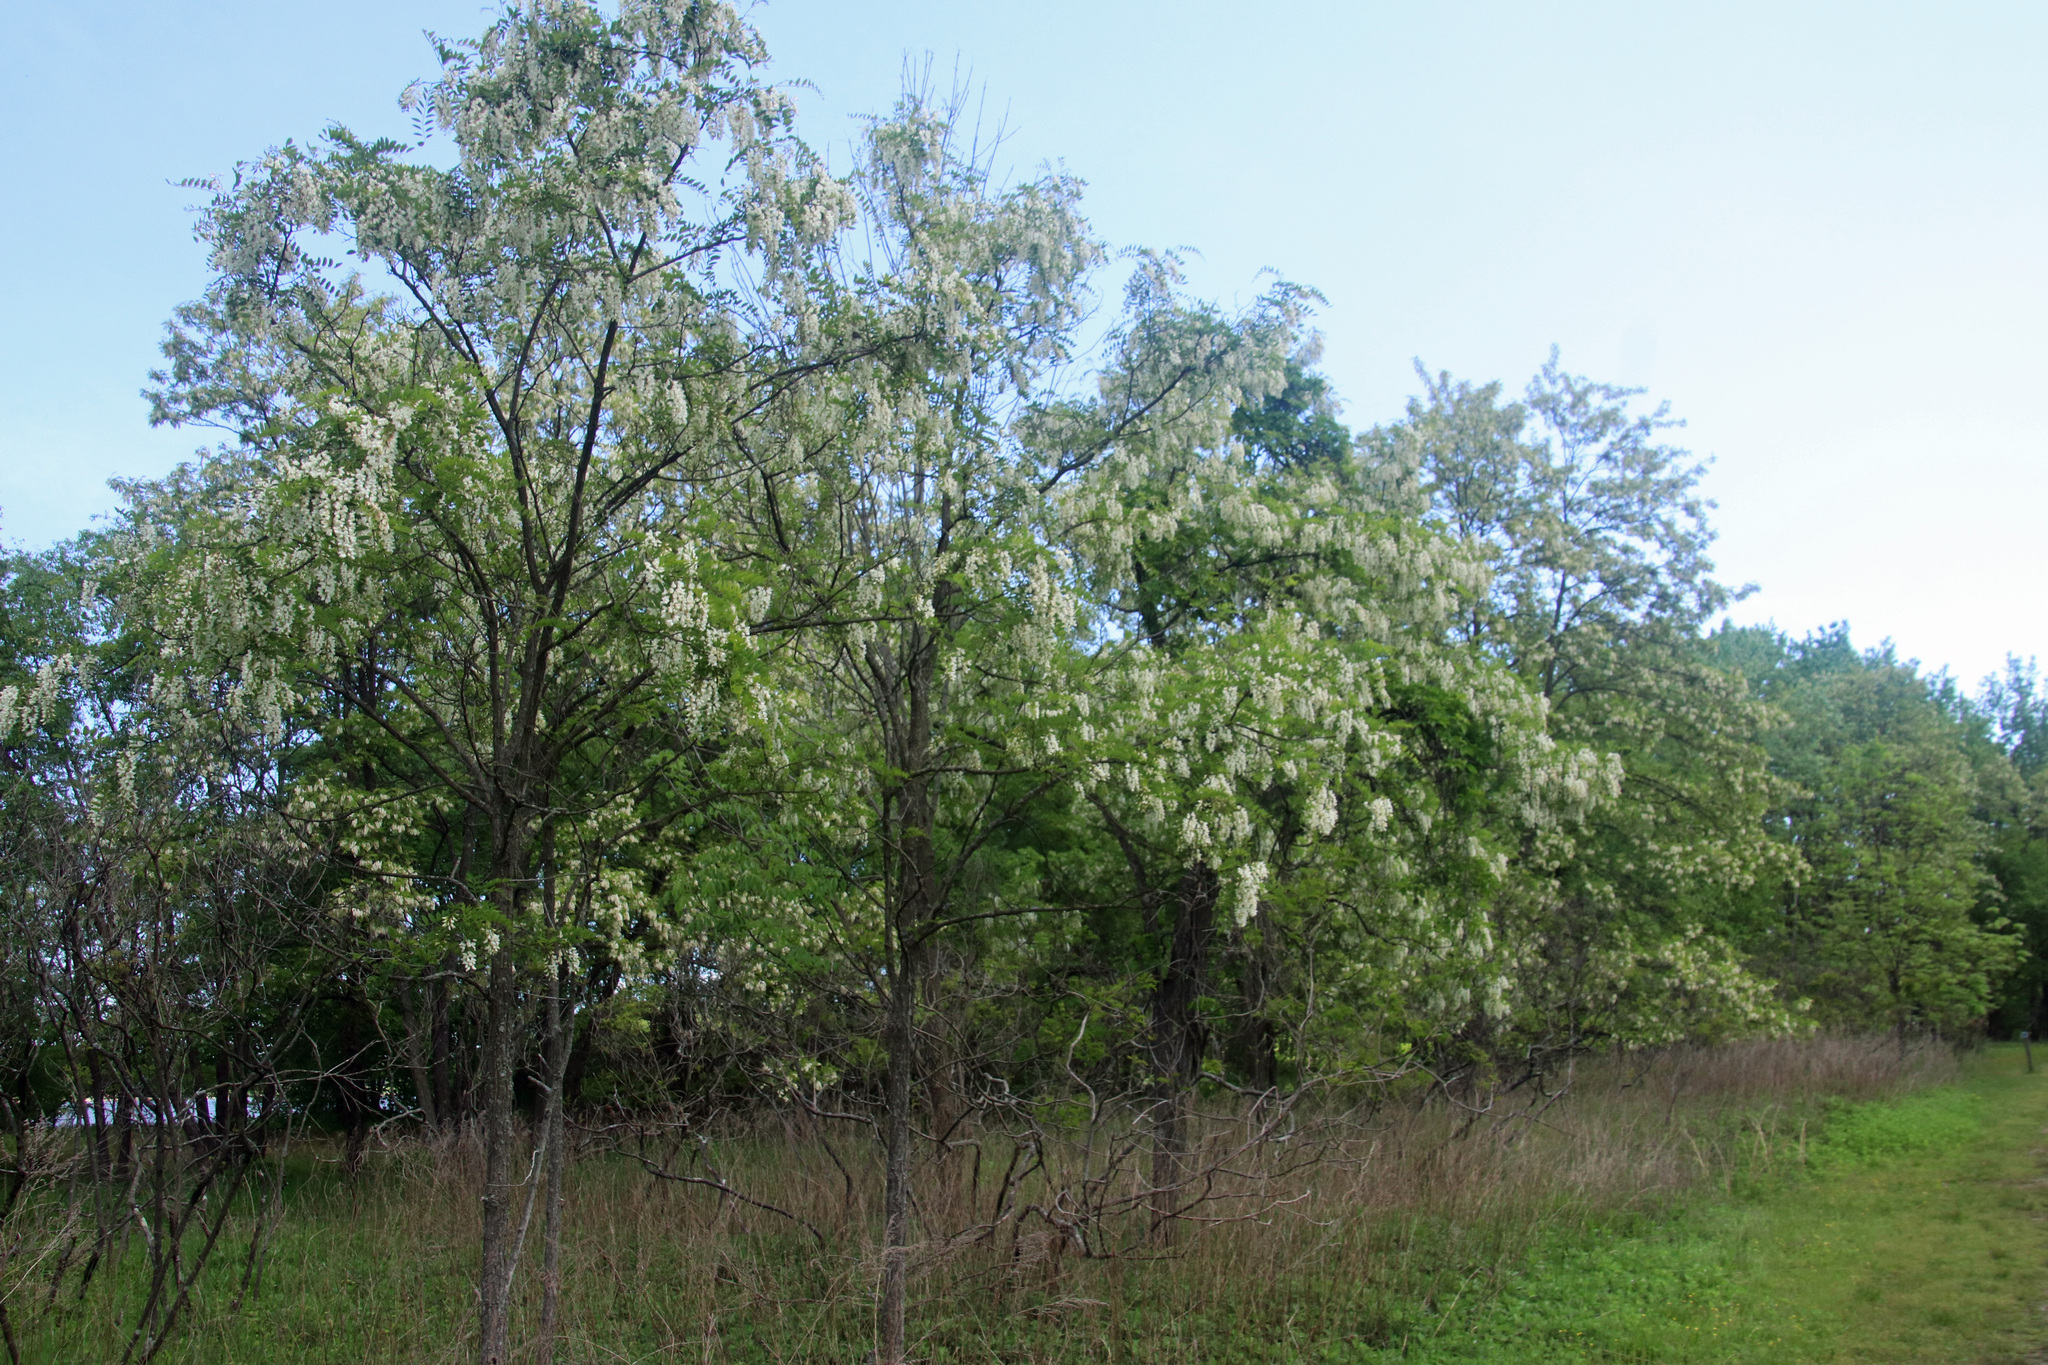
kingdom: Plantae
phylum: Tracheophyta
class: Magnoliopsida
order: Fabales
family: Fabaceae
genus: Robinia
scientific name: Robinia pseudoacacia
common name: Black locust
